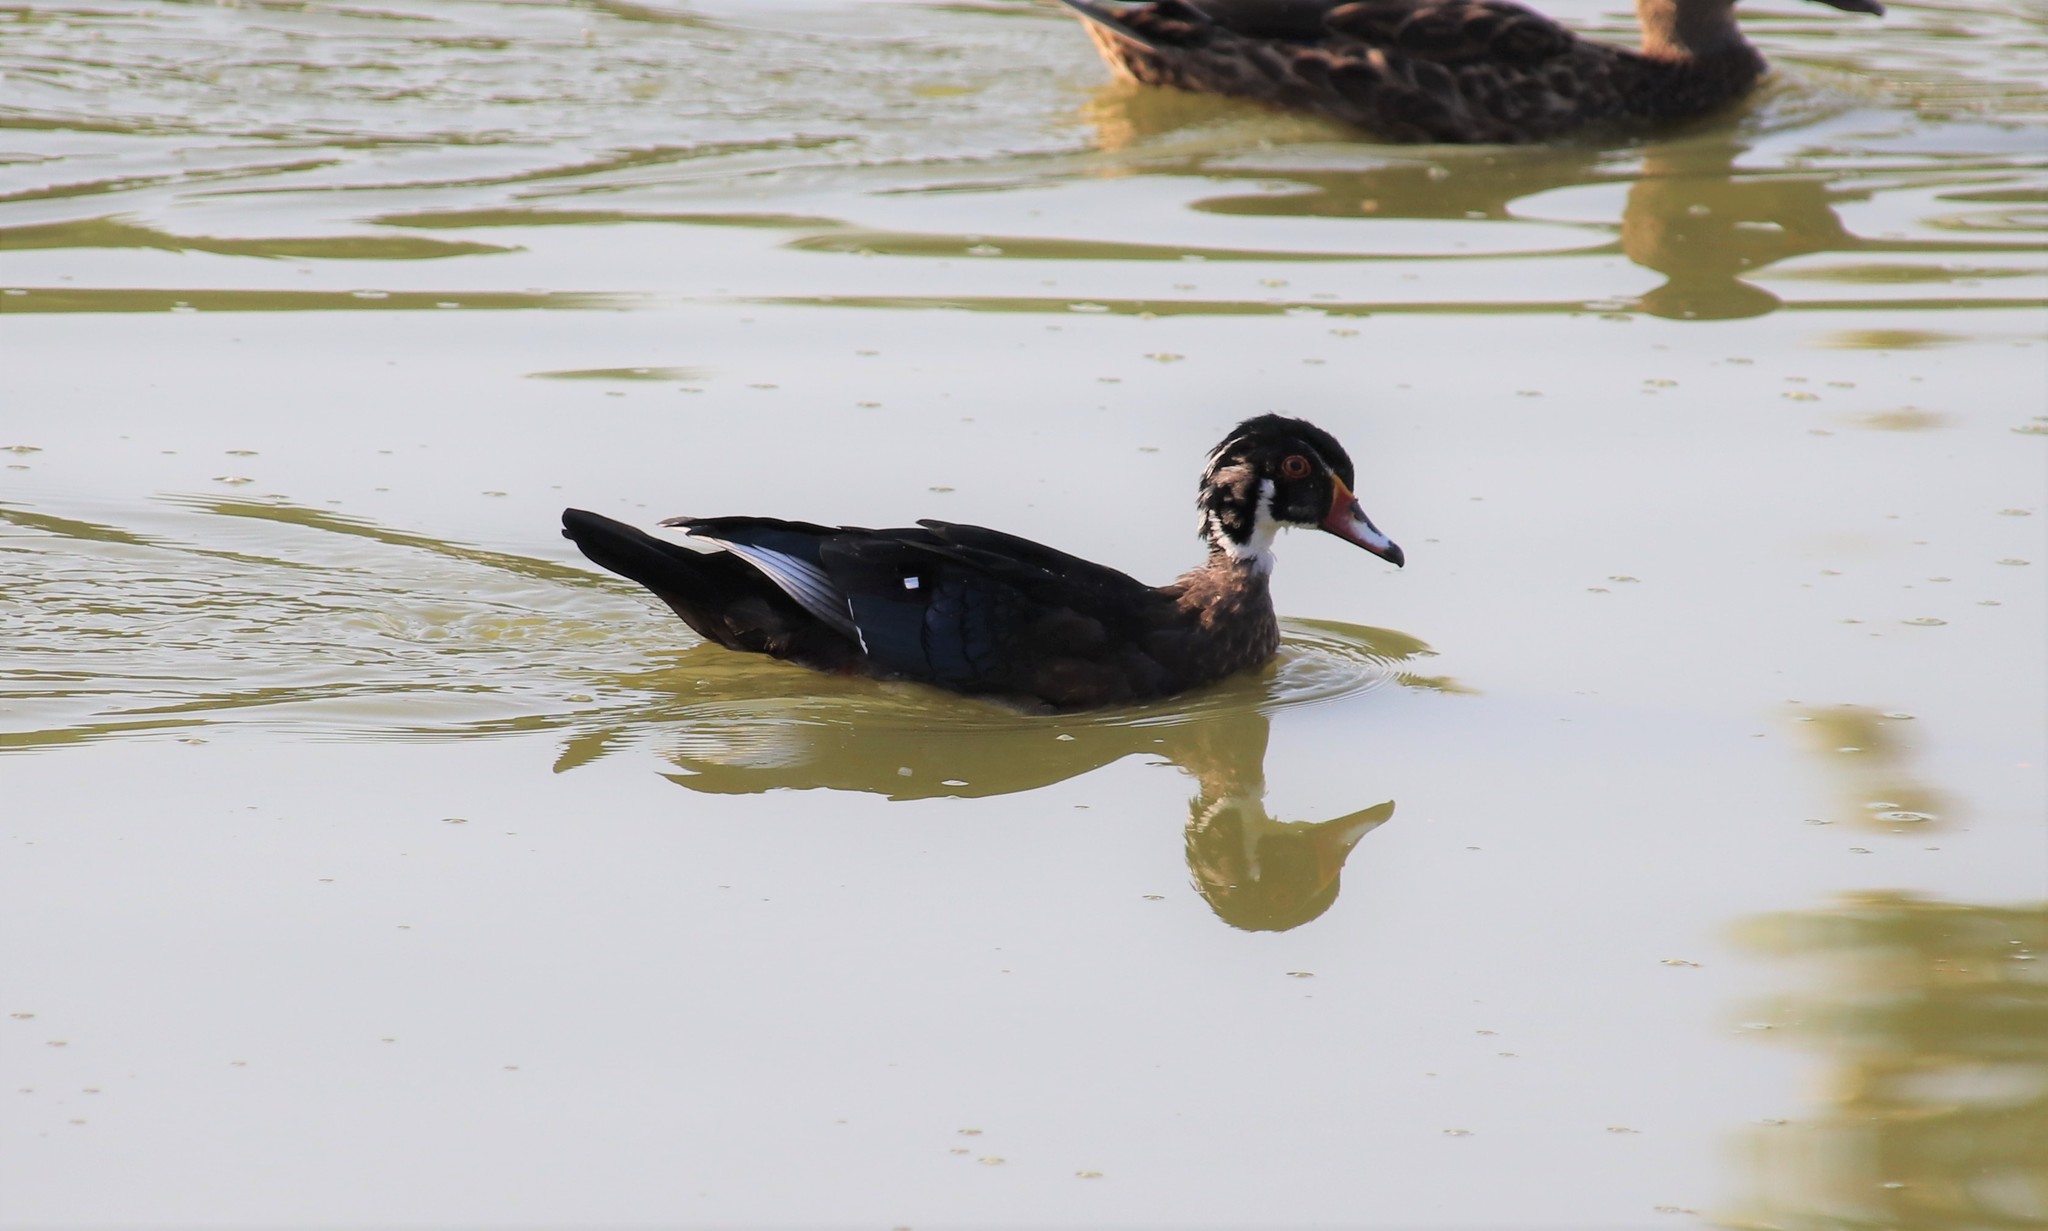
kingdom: Animalia
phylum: Chordata
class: Aves
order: Anseriformes
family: Anatidae
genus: Aix
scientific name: Aix sponsa
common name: Wood duck
